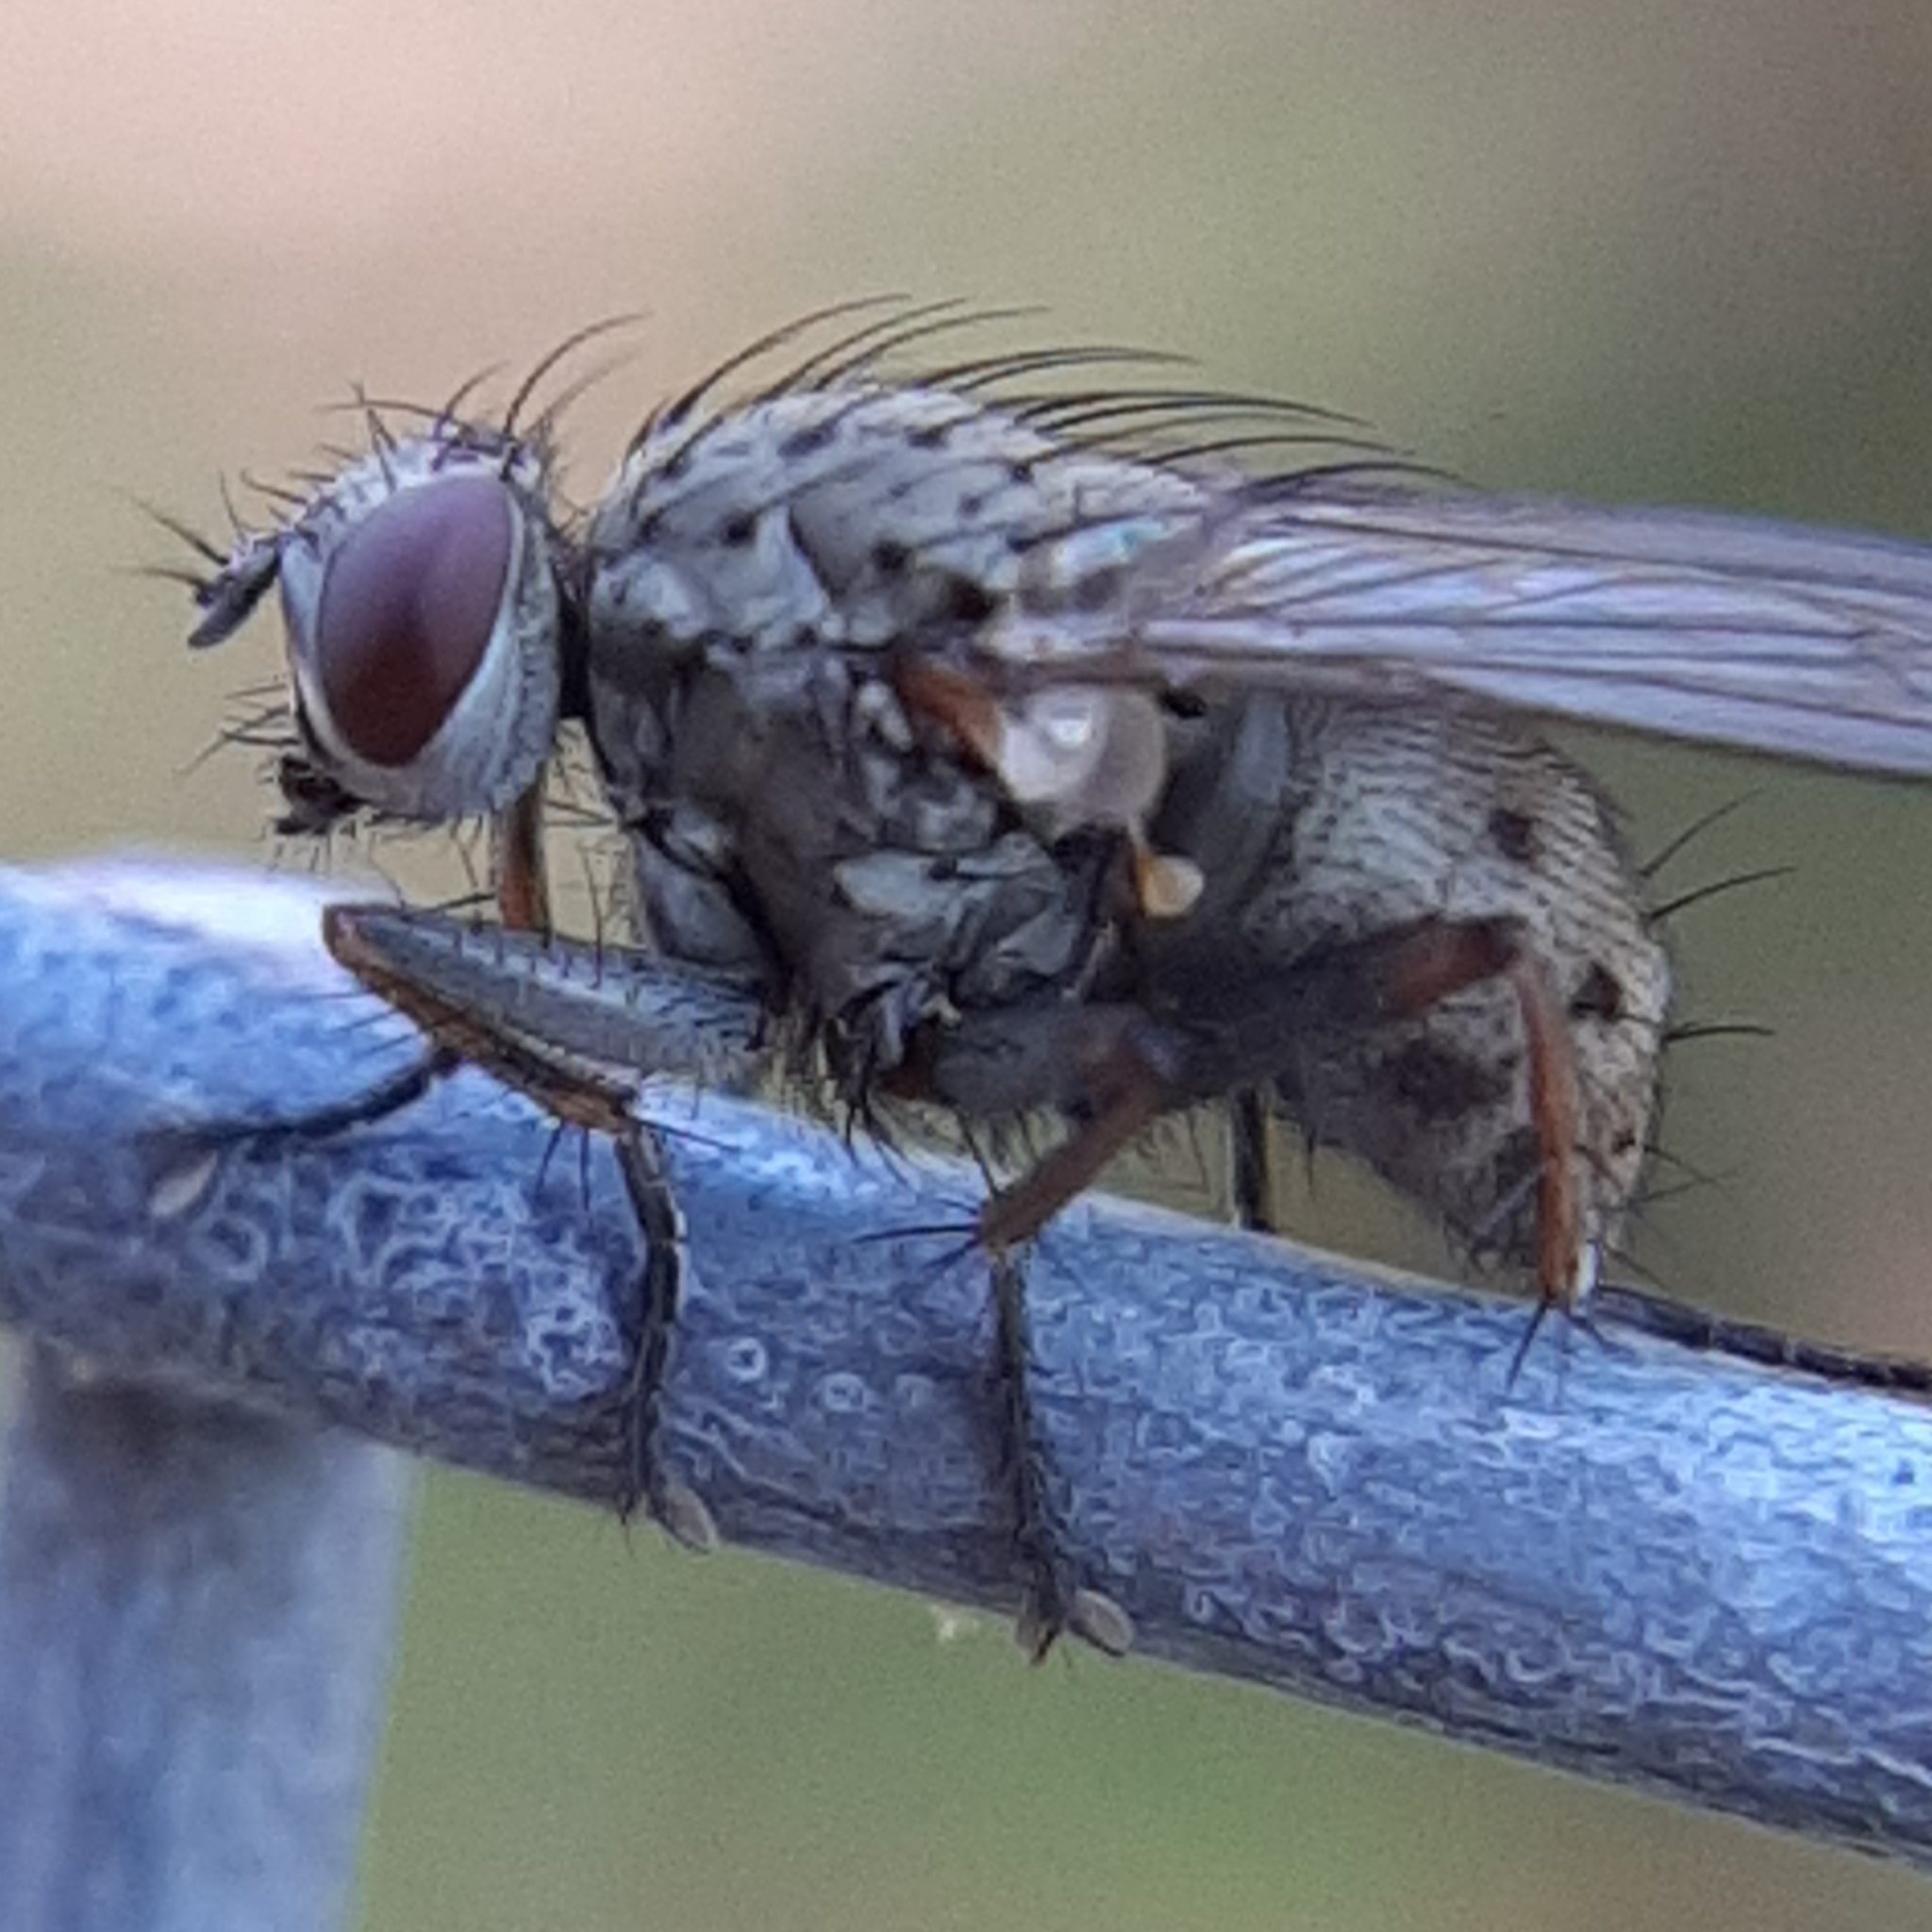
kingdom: Animalia
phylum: Arthropoda
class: Insecta
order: Diptera
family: Muscidae
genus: Coenosia
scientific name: Coenosia tigrina
